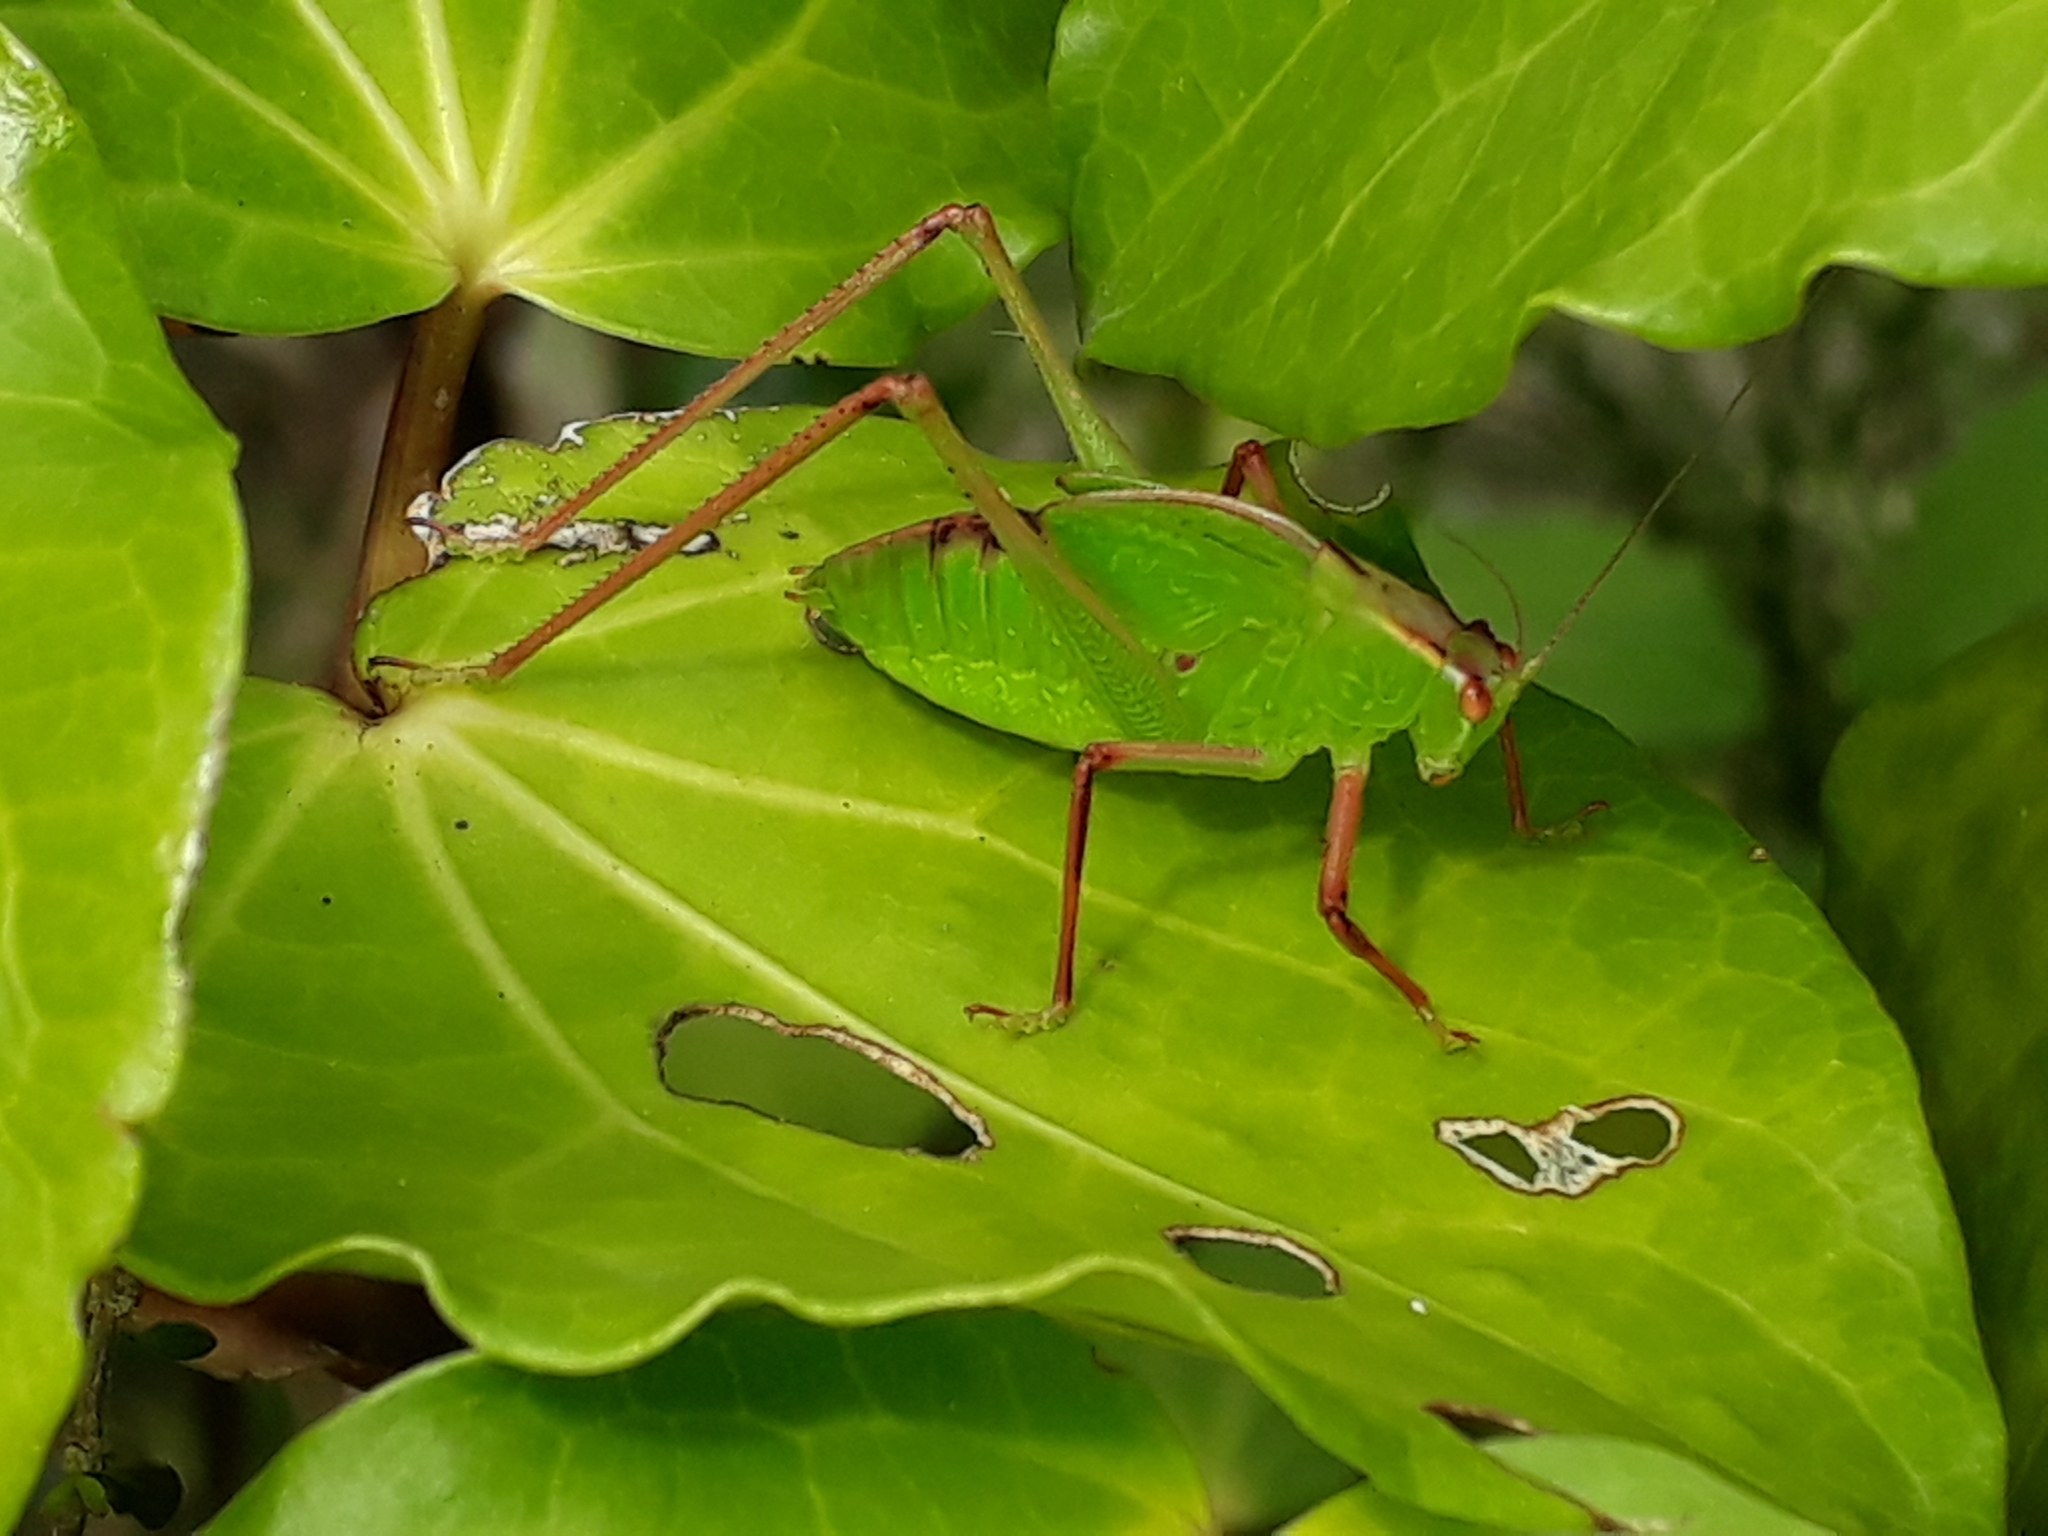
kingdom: Animalia
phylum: Arthropoda
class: Insecta
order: Orthoptera
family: Tettigoniidae
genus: Caedicia
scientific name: Caedicia simplex
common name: Common garden katydid
